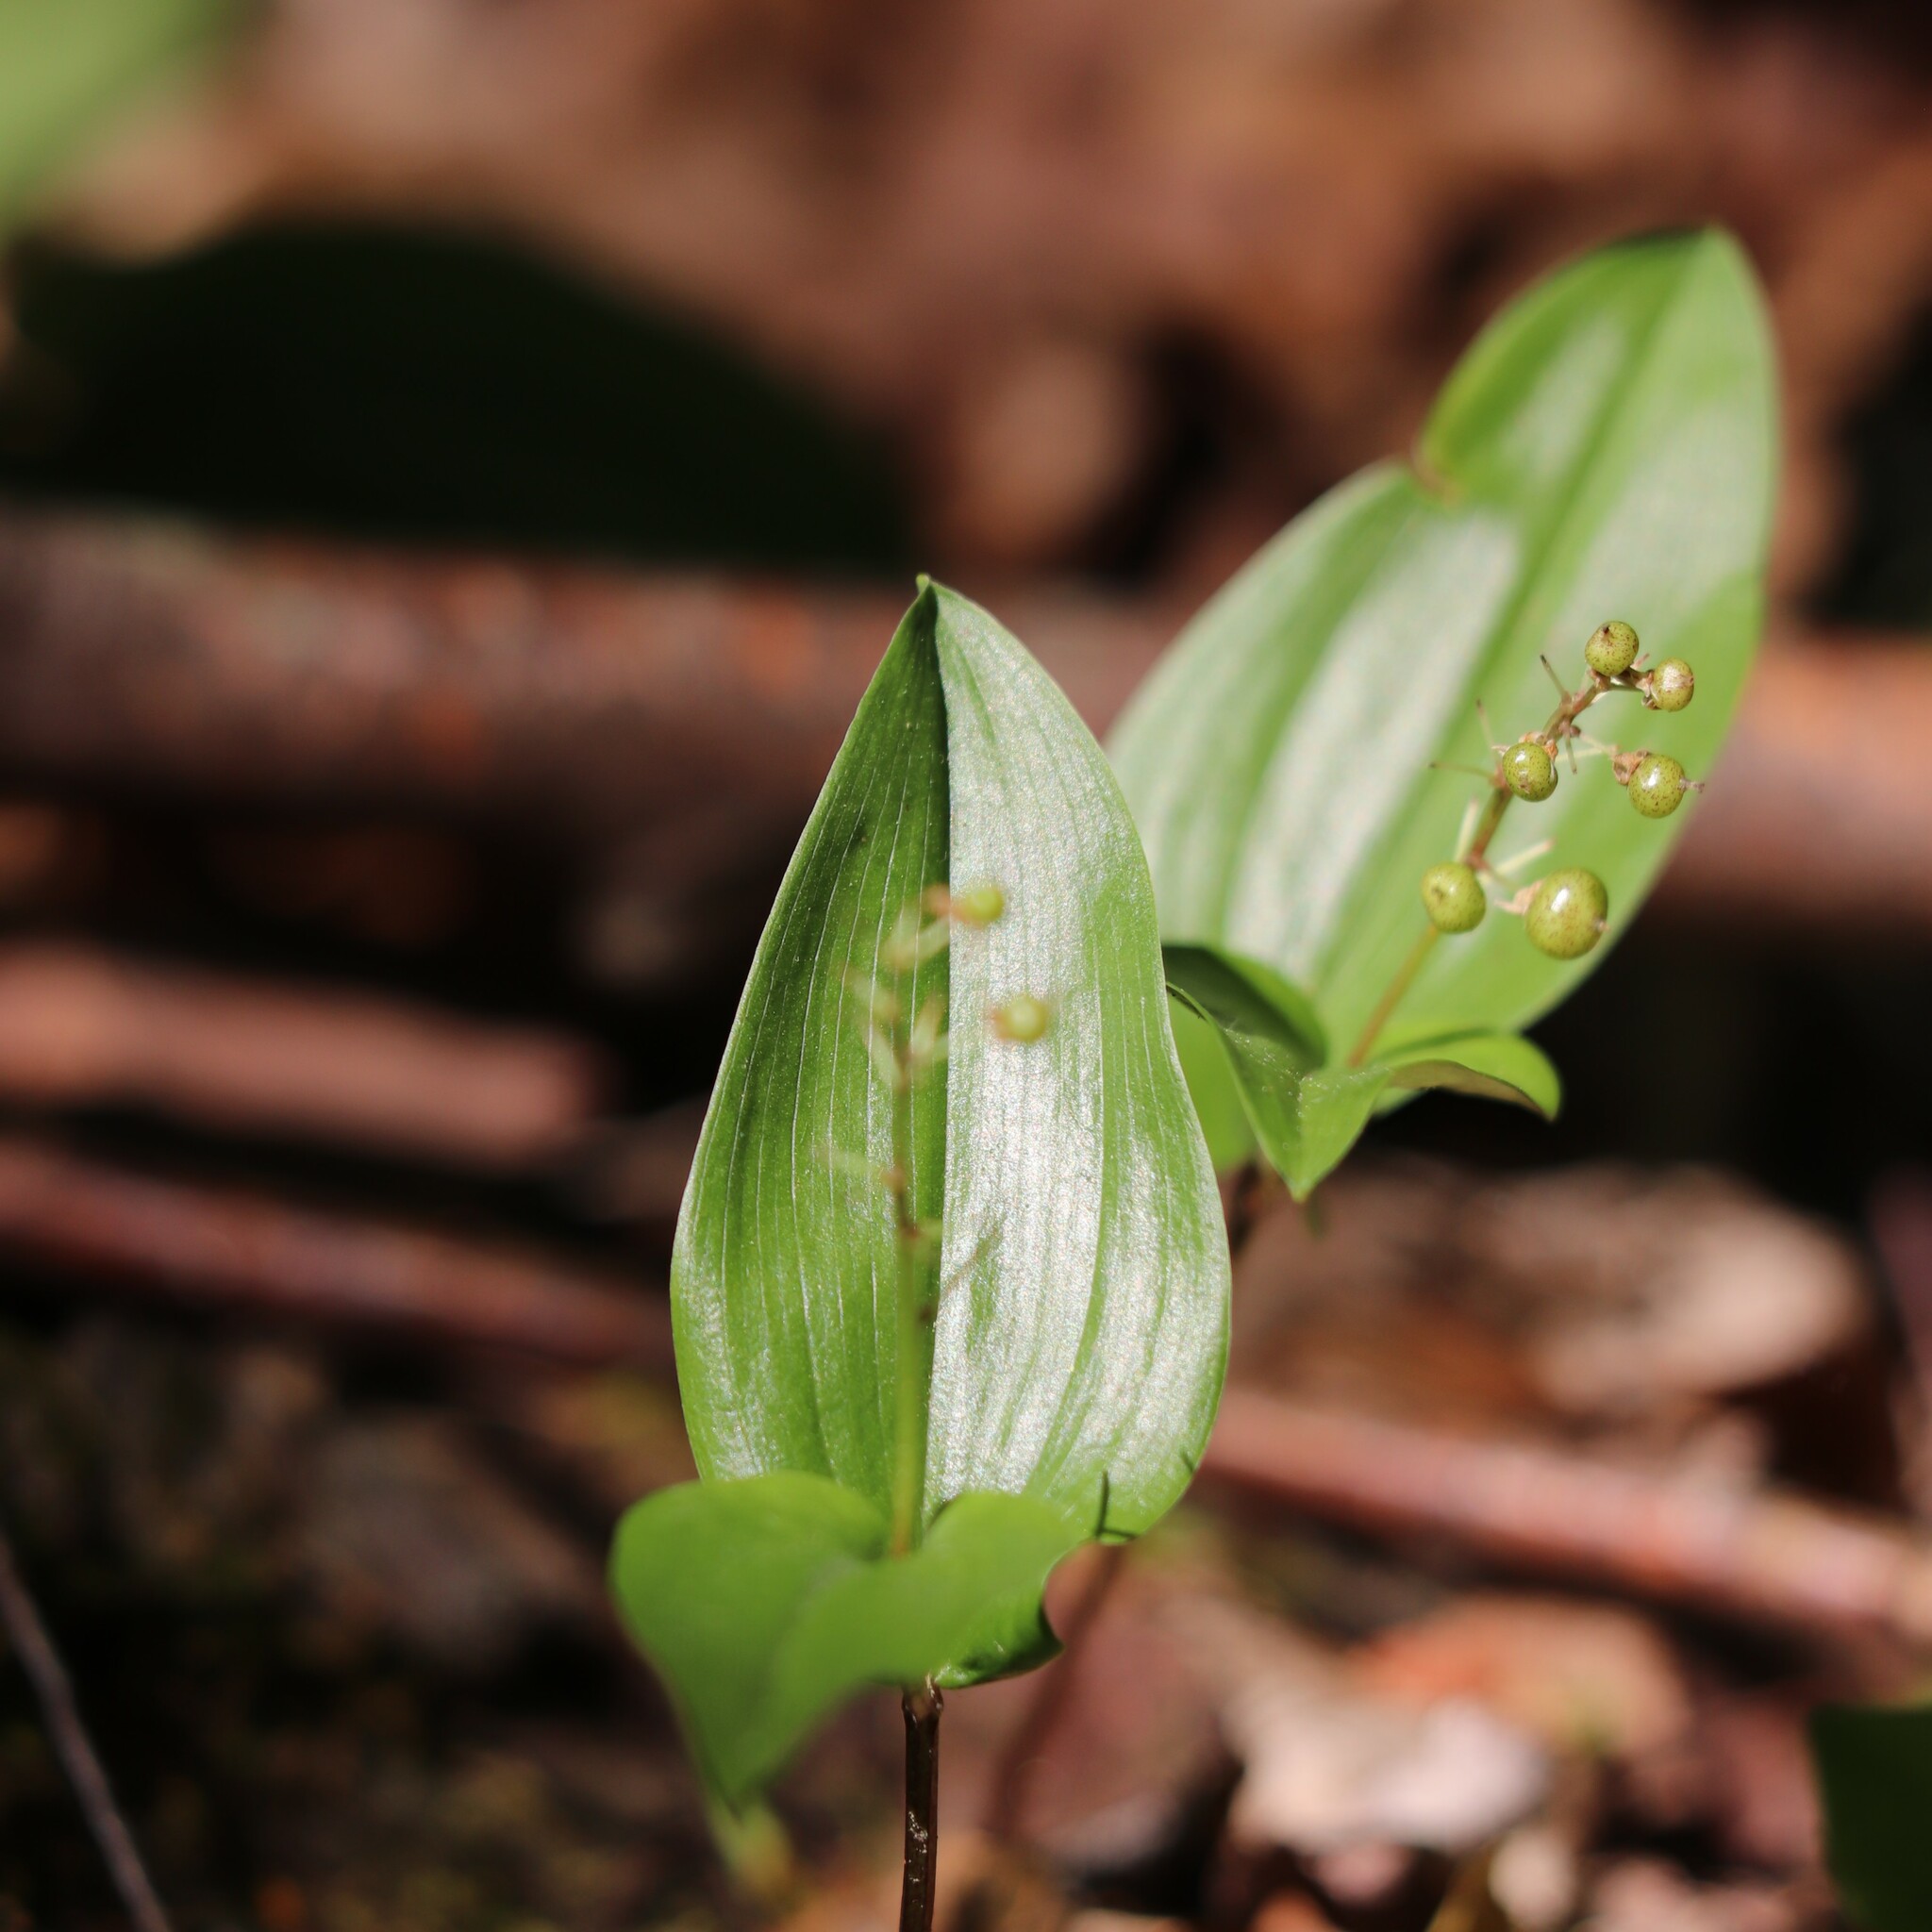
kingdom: Plantae
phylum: Tracheophyta
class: Liliopsida
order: Asparagales
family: Asparagaceae
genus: Maianthemum
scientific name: Maianthemum canadense
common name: False lily-of-the-valley
